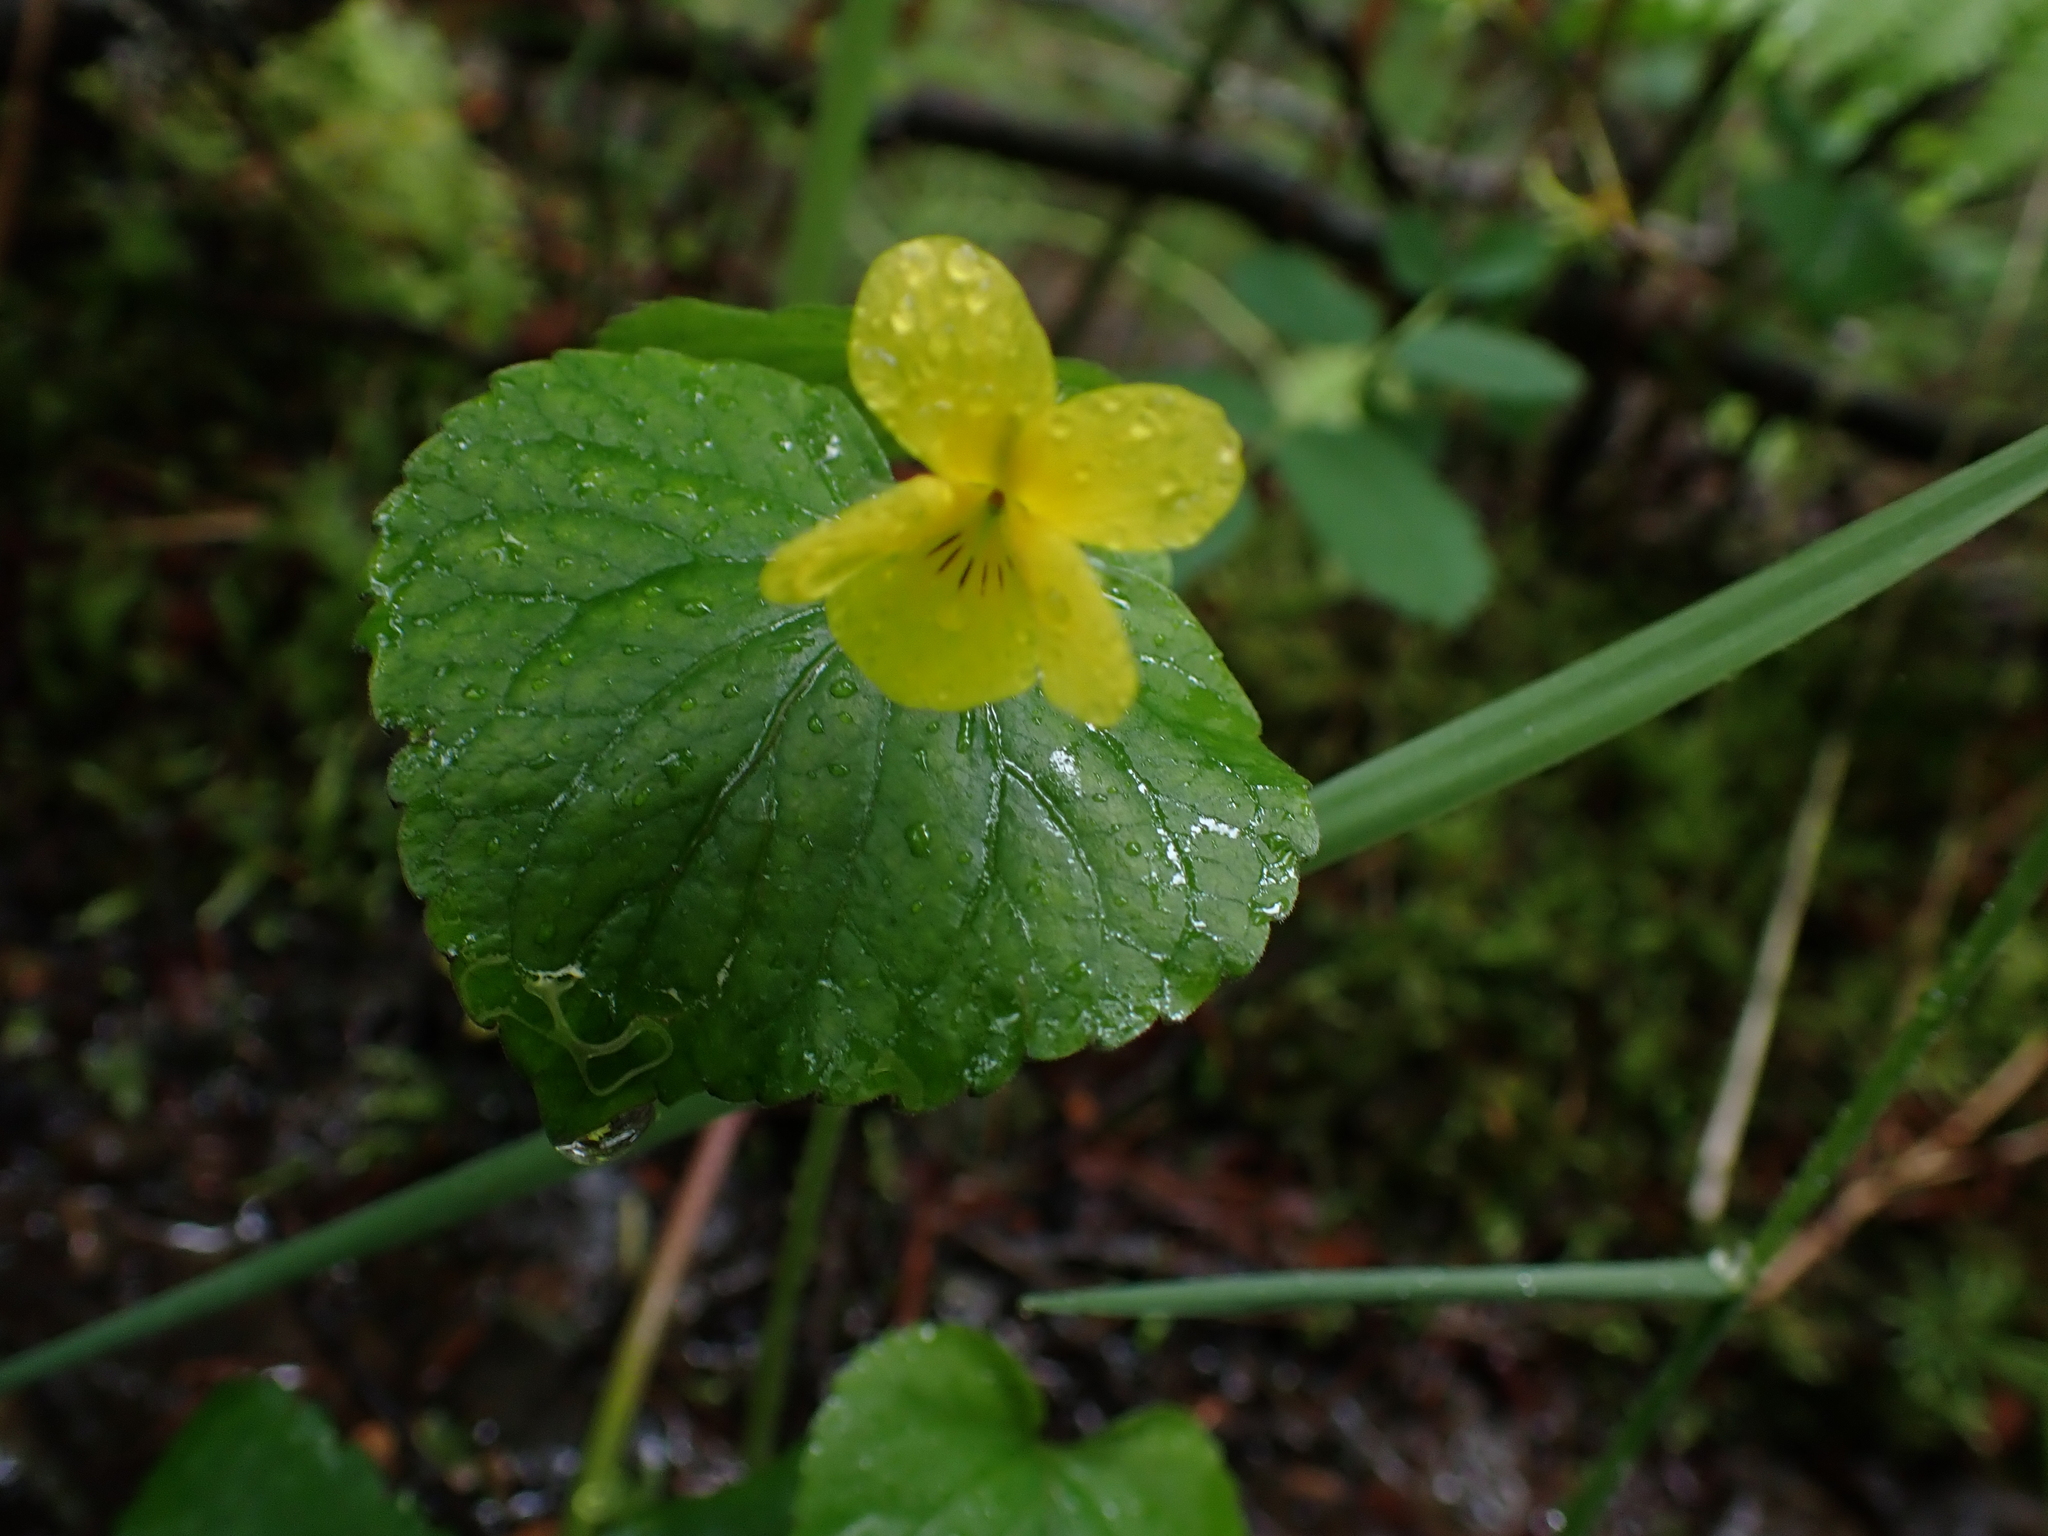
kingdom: Plantae
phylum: Tracheophyta
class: Magnoliopsida
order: Malpighiales
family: Violaceae
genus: Viola
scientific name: Viola glabella
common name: Stream violet
